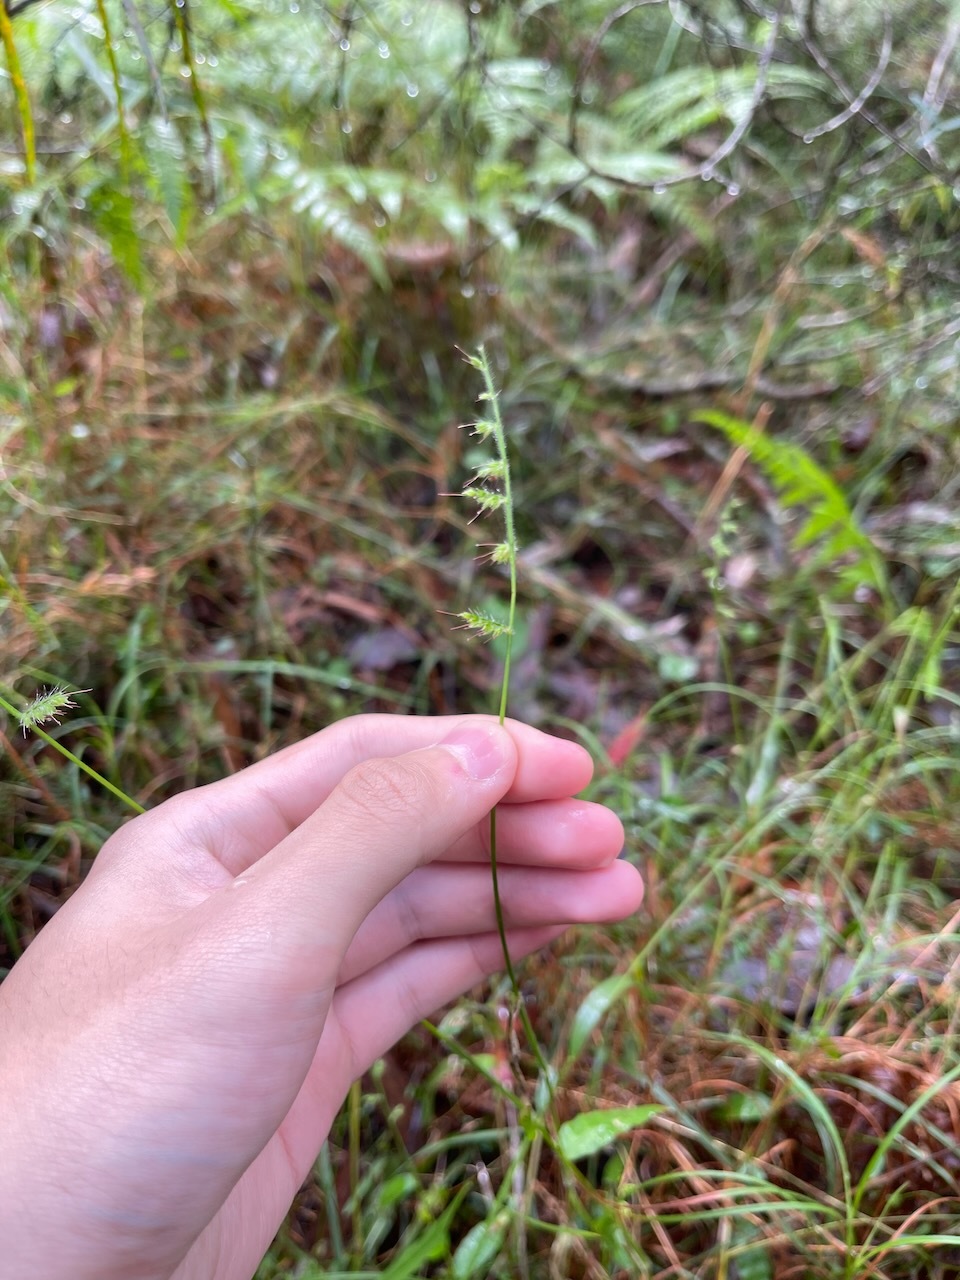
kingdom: Plantae
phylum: Tracheophyta
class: Liliopsida
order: Poales
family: Poaceae
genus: Oplismenus
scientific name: Oplismenus hirtellus
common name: Basketgrass
